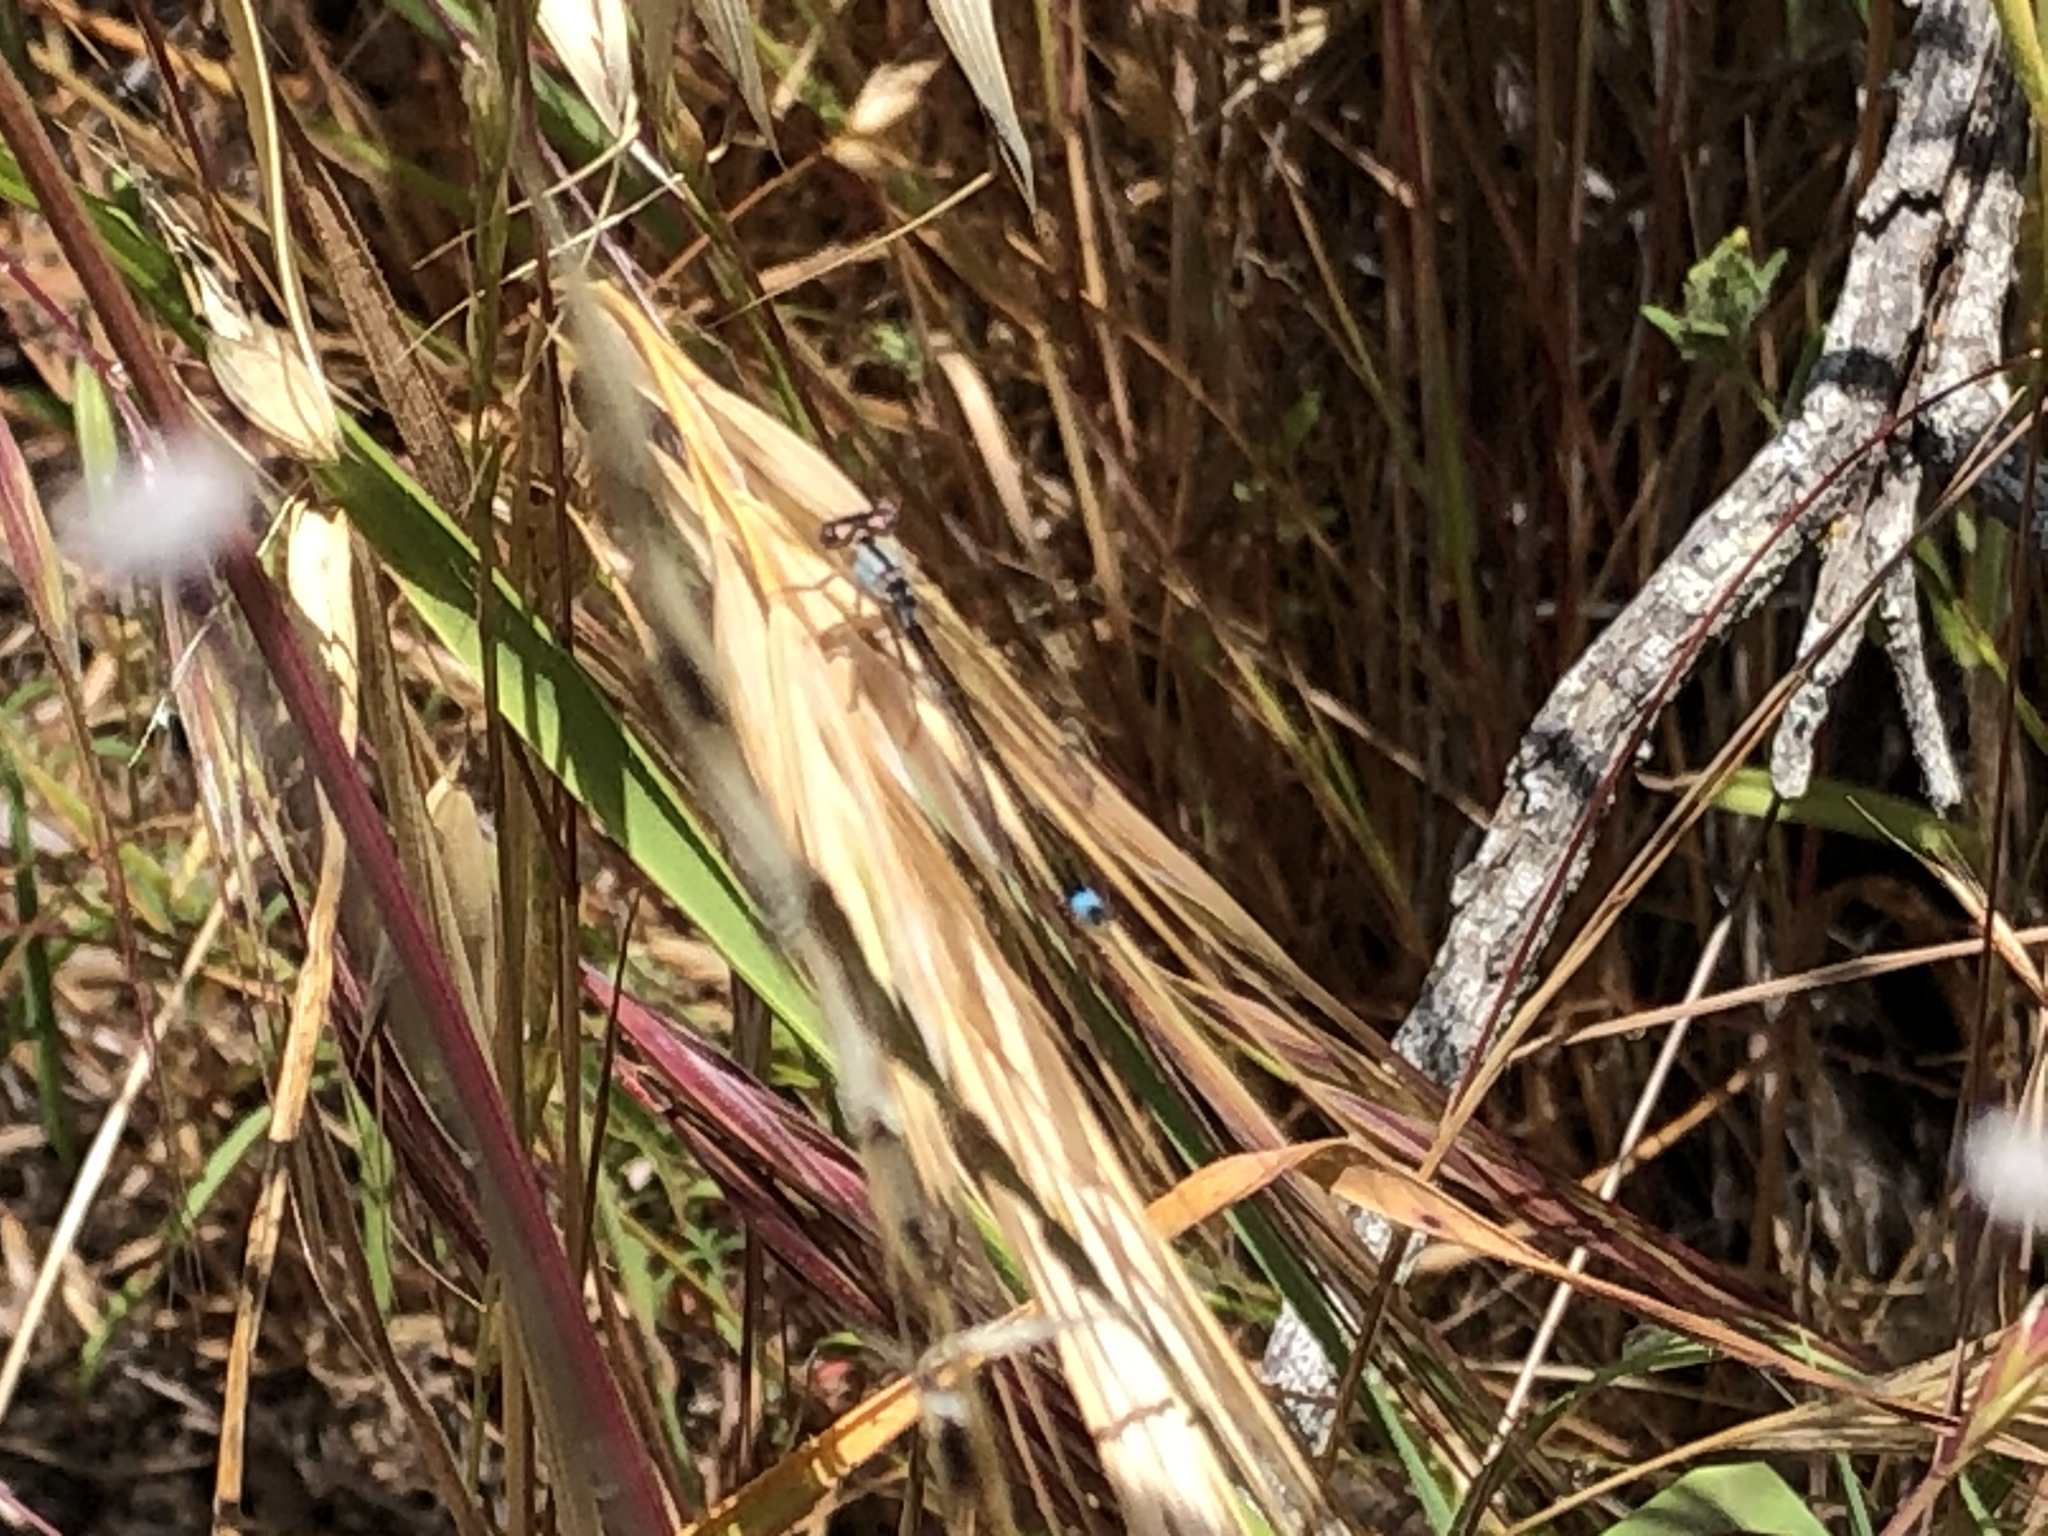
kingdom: Animalia
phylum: Arthropoda
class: Insecta
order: Odonata
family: Coenagrionidae
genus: Ischnura
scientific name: Ischnura cervula
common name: Pacific forktail
